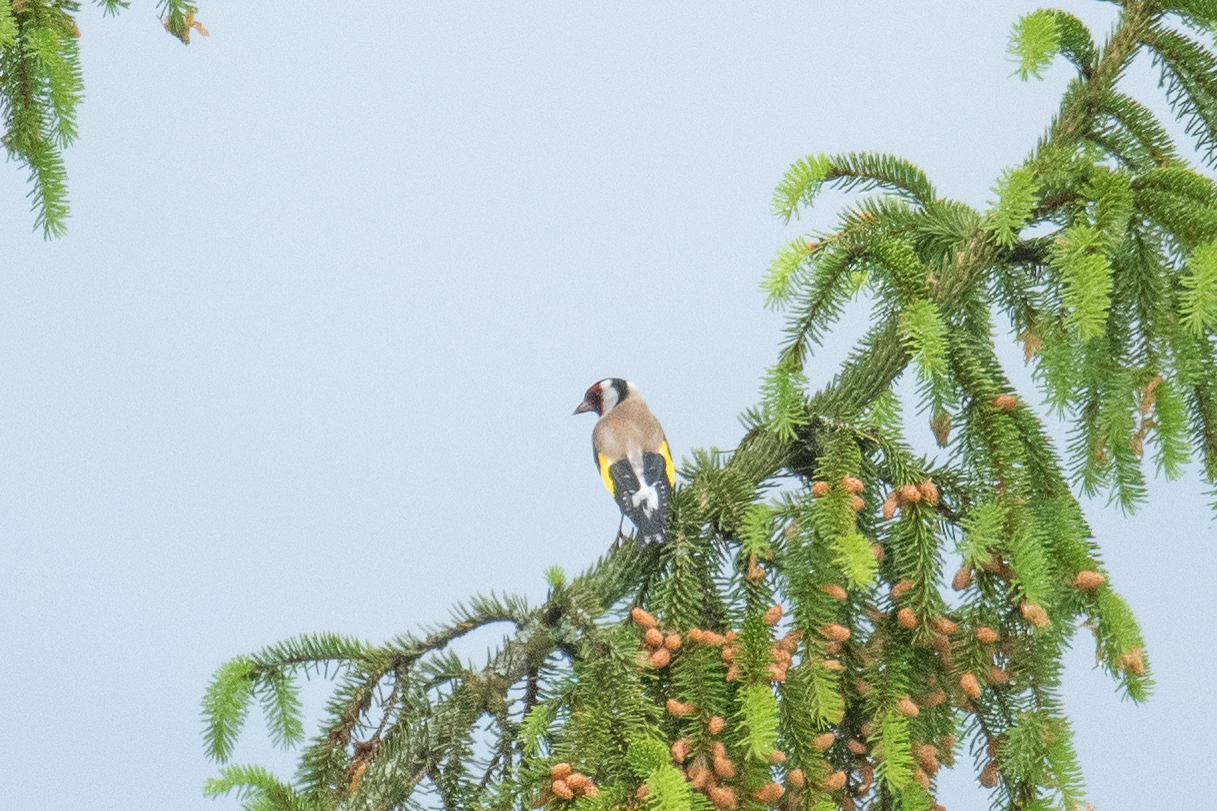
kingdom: Animalia
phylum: Chordata
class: Aves
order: Passeriformes
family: Fringillidae
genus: Carduelis
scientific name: Carduelis carduelis
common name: European goldfinch
